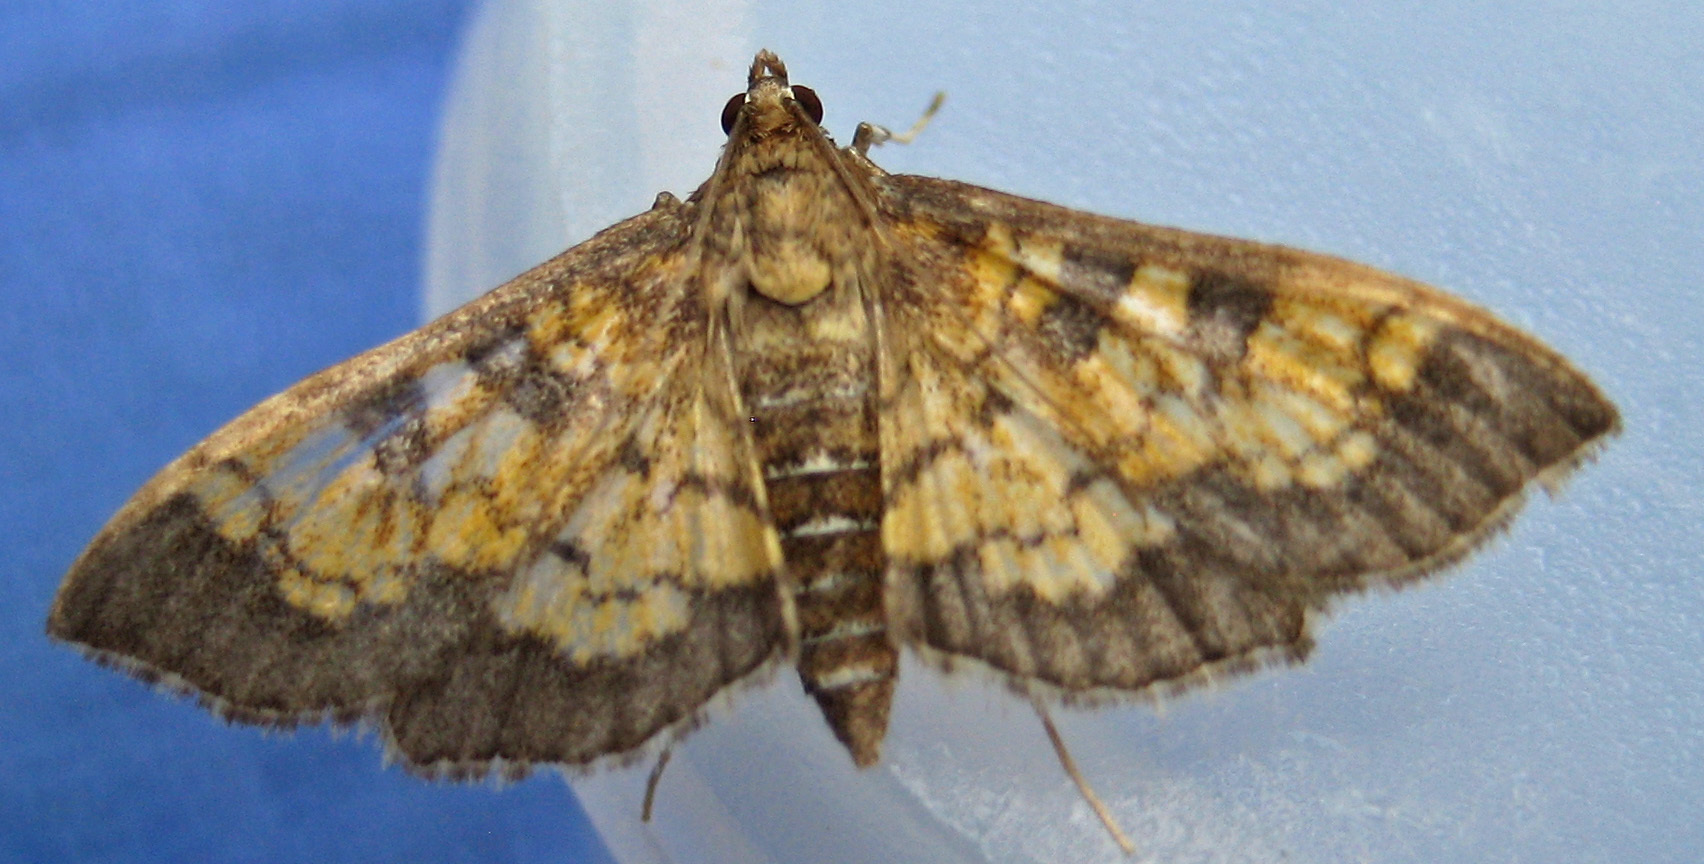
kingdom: Animalia
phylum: Arthropoda
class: Insecta
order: Lepidoptera
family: Crambidae
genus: Epipagis
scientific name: Epipagis adipaloides
